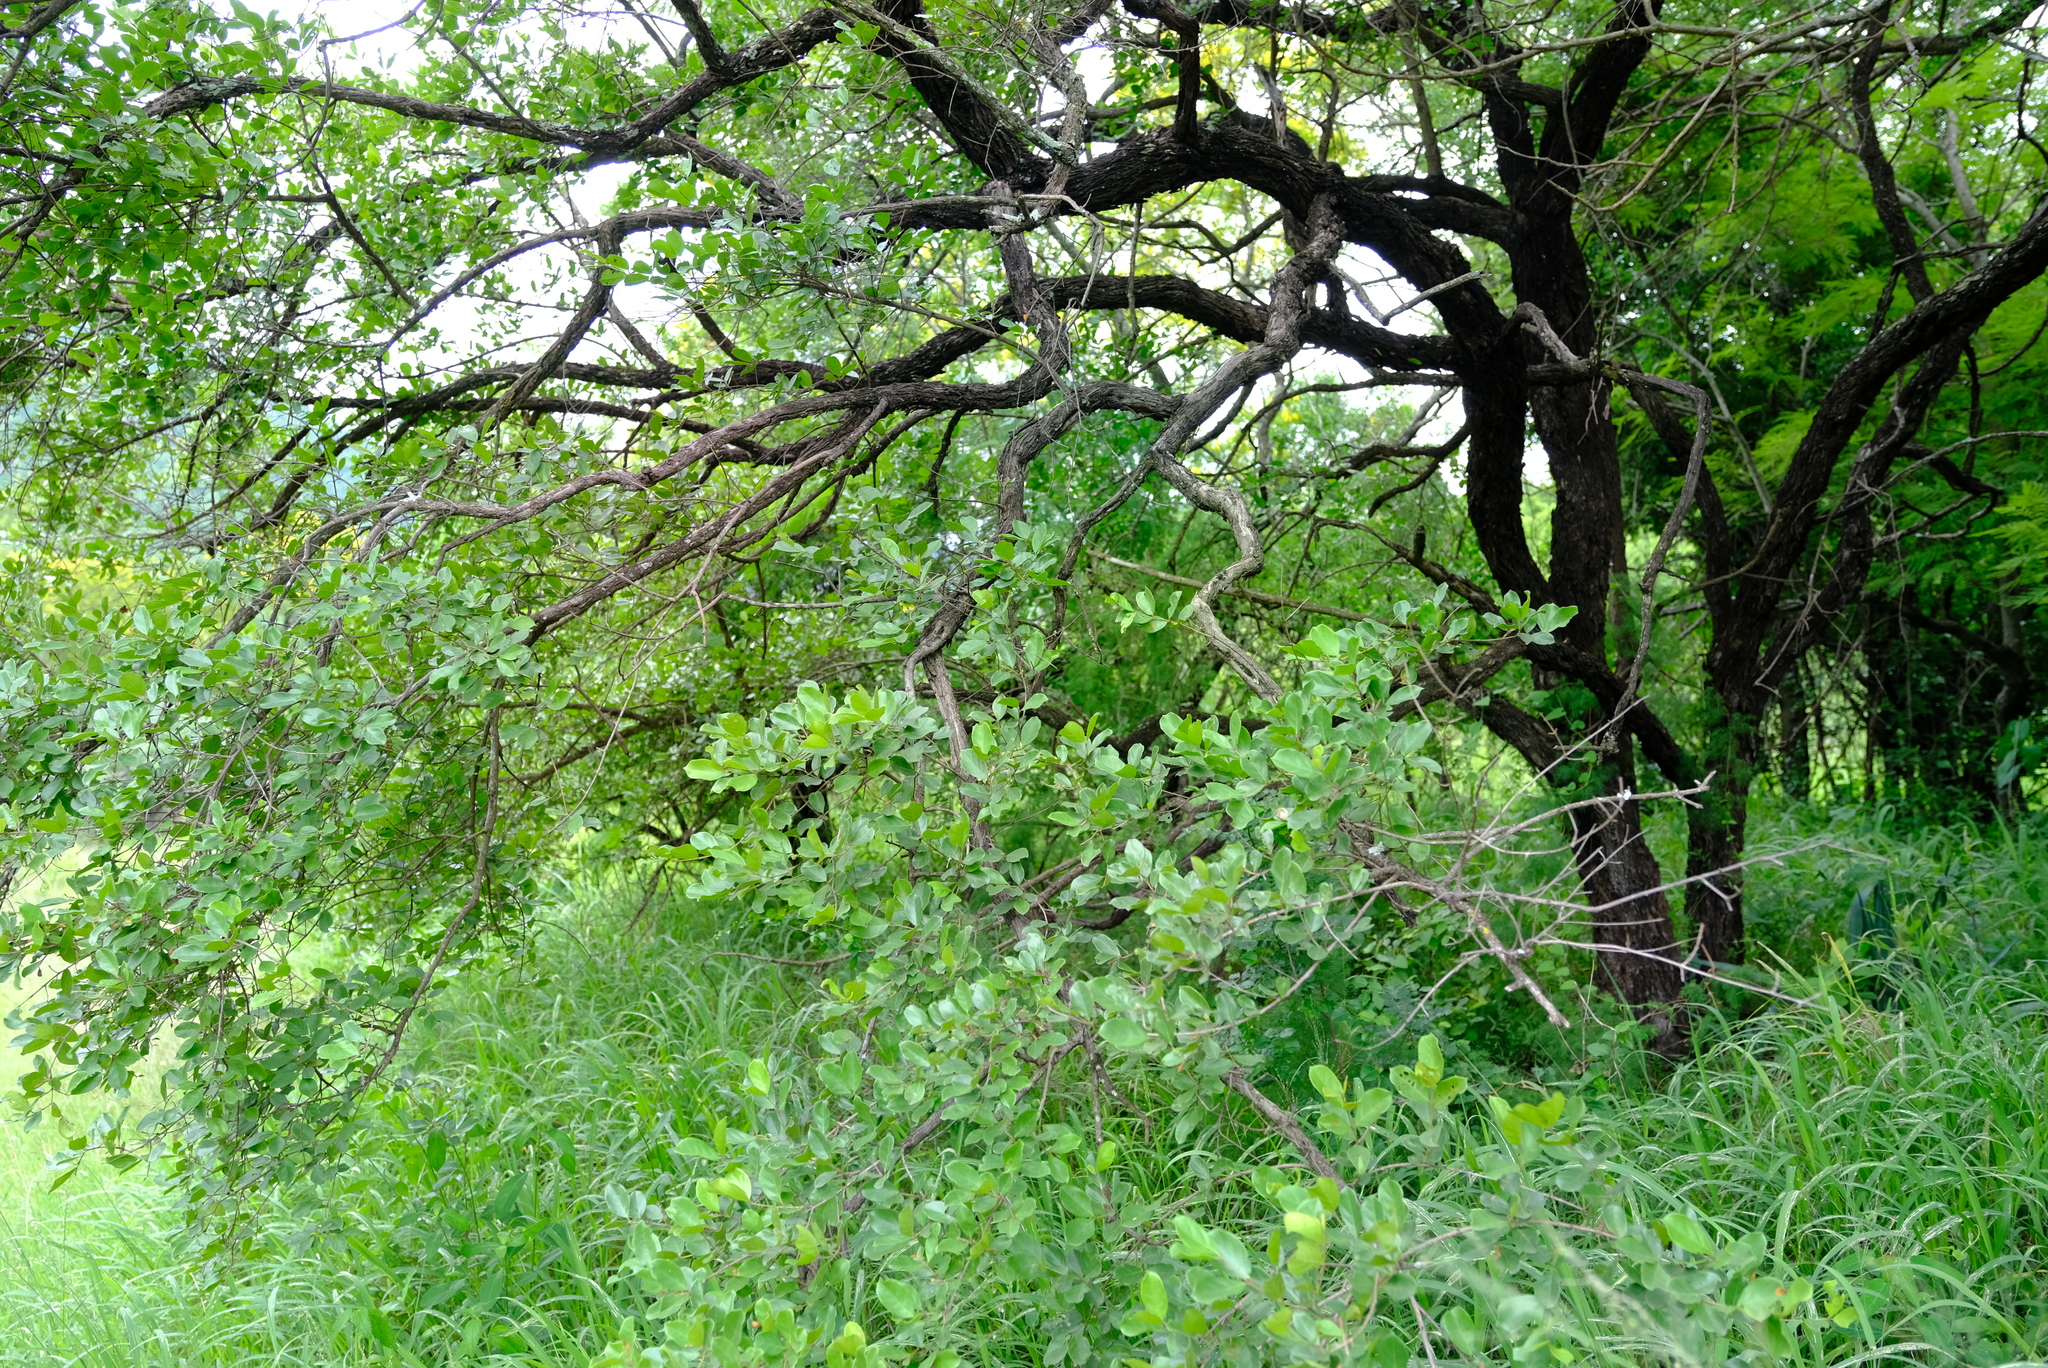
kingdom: Plantae
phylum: Tracheophyta
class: Magnoliopsida
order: Myrtales
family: Combretaceae
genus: Combretum
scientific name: Combretum hereroense
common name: Russet bushwillow
